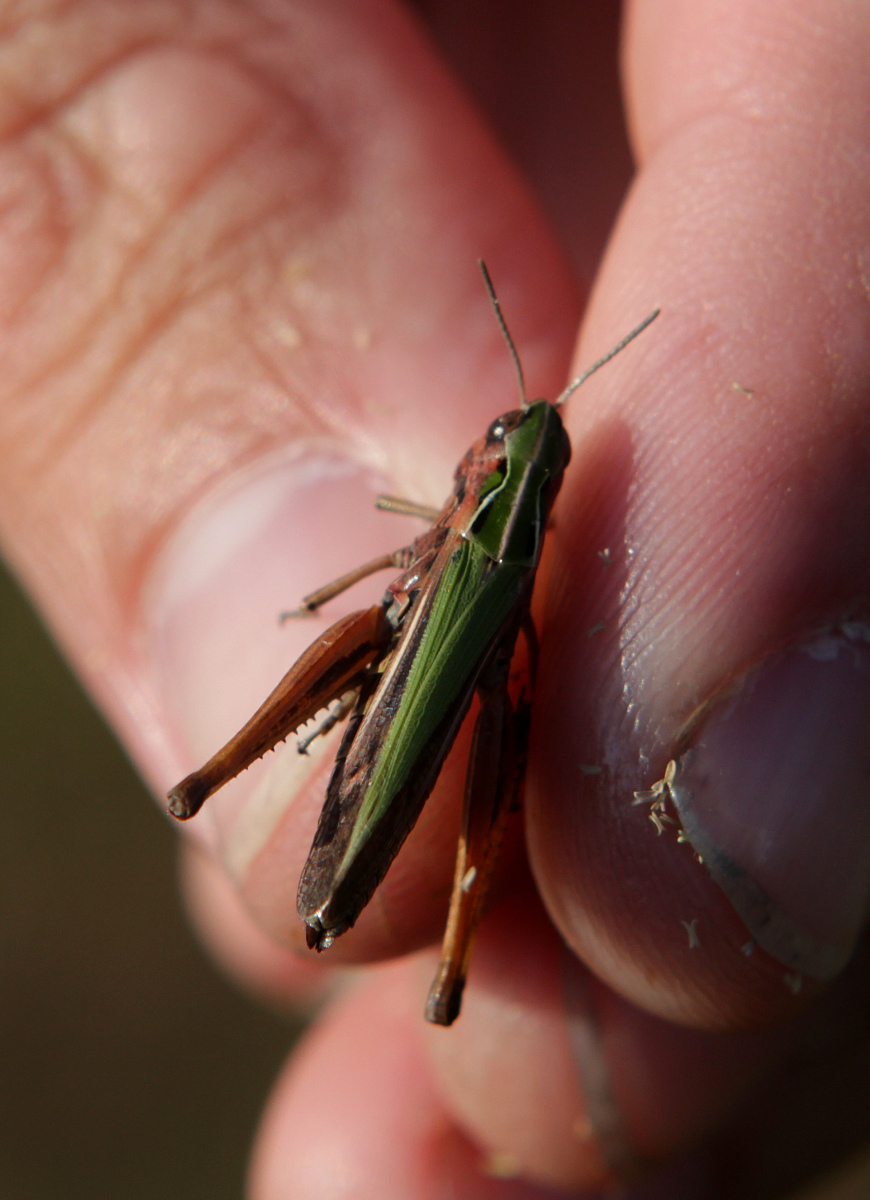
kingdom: Animalia
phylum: Arthropoda
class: Insecta
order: Orthoptera
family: Acrididae
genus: Omocestus
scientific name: Omocestus viridulus
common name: Common green grasshopper
